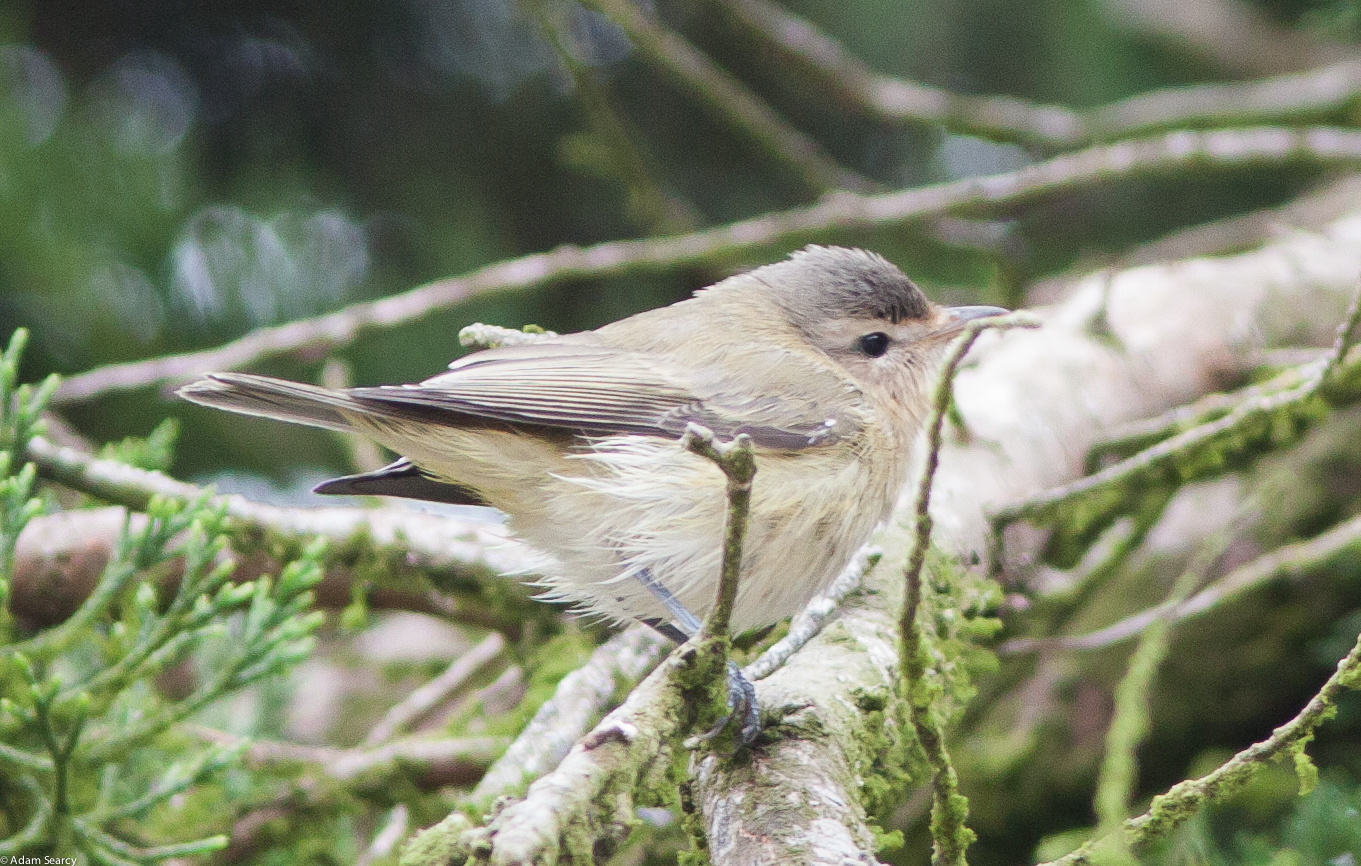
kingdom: Animalia
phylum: Chordata
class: Aves
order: Passeriformes
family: Vireonidae
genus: Vireo
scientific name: Vireo gilvus
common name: Warbling vireo
